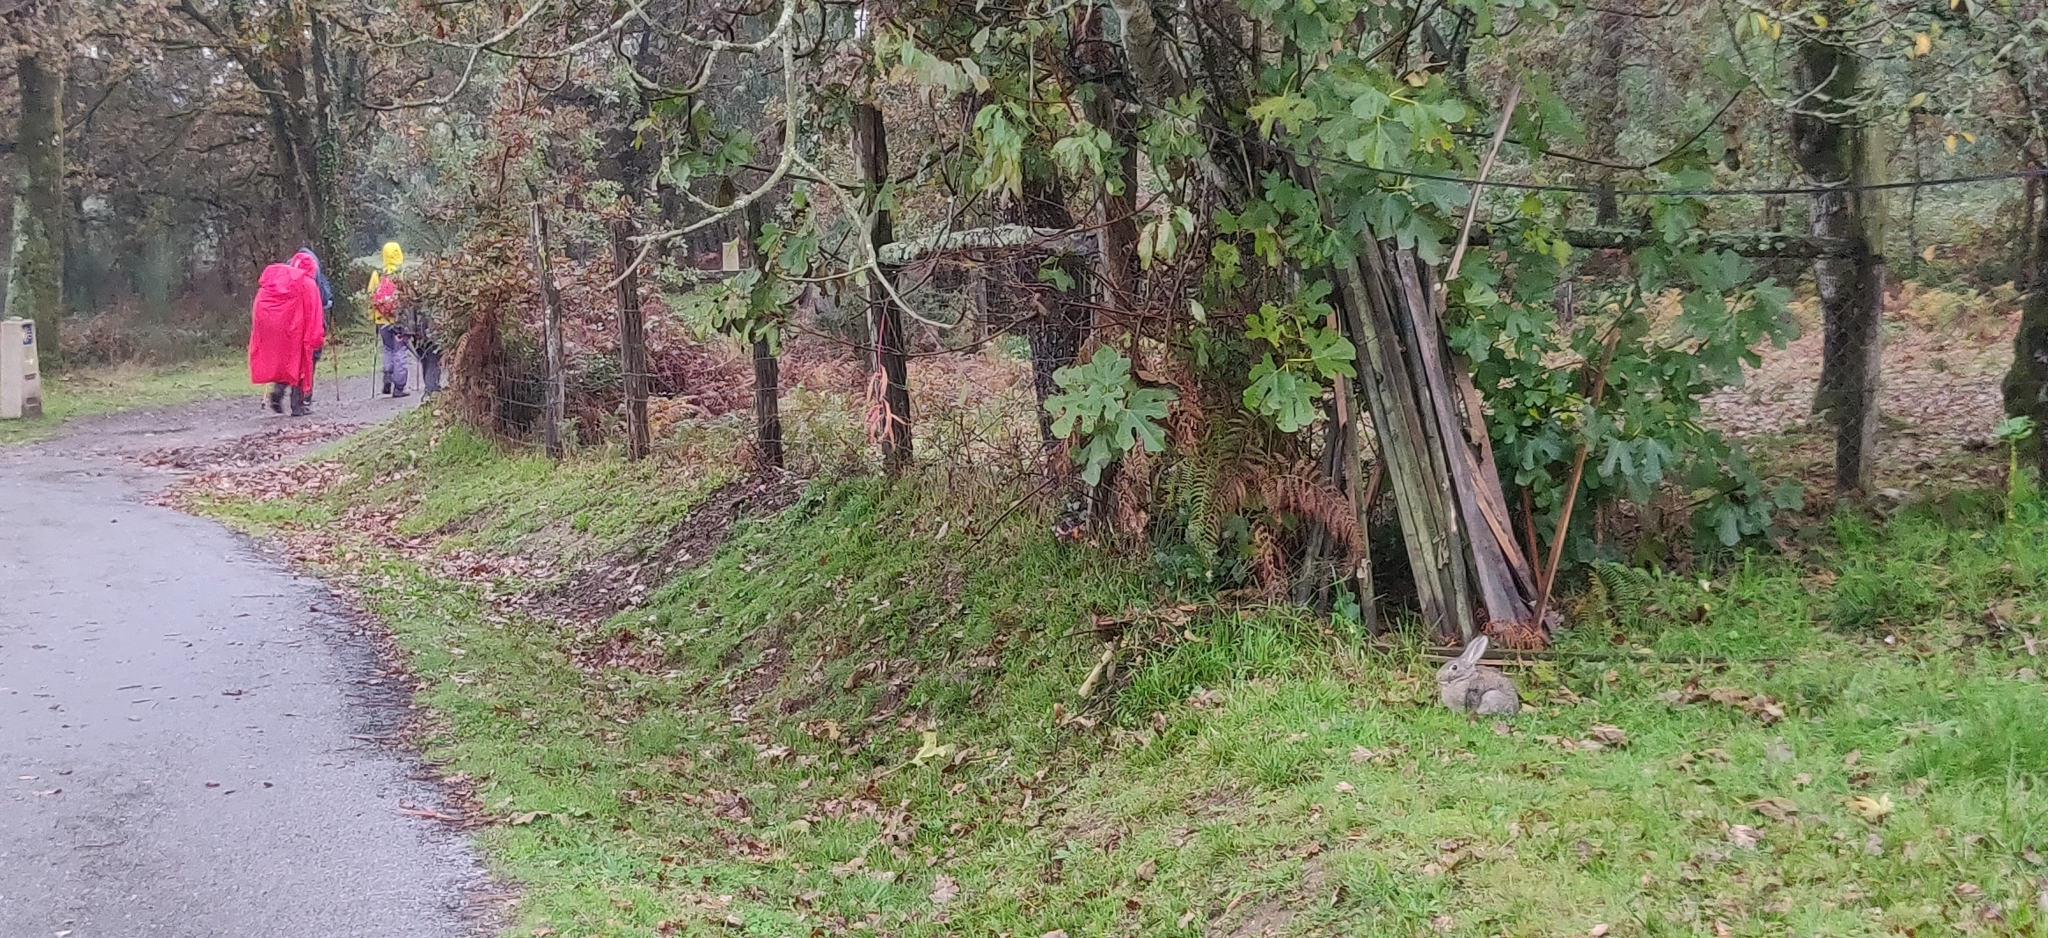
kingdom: Animalia
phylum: Chordata
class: Mammalia
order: Lagomorpha
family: Leporidae
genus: Oryctolagus
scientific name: Oryctolagus cuniculus
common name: European rabbit
